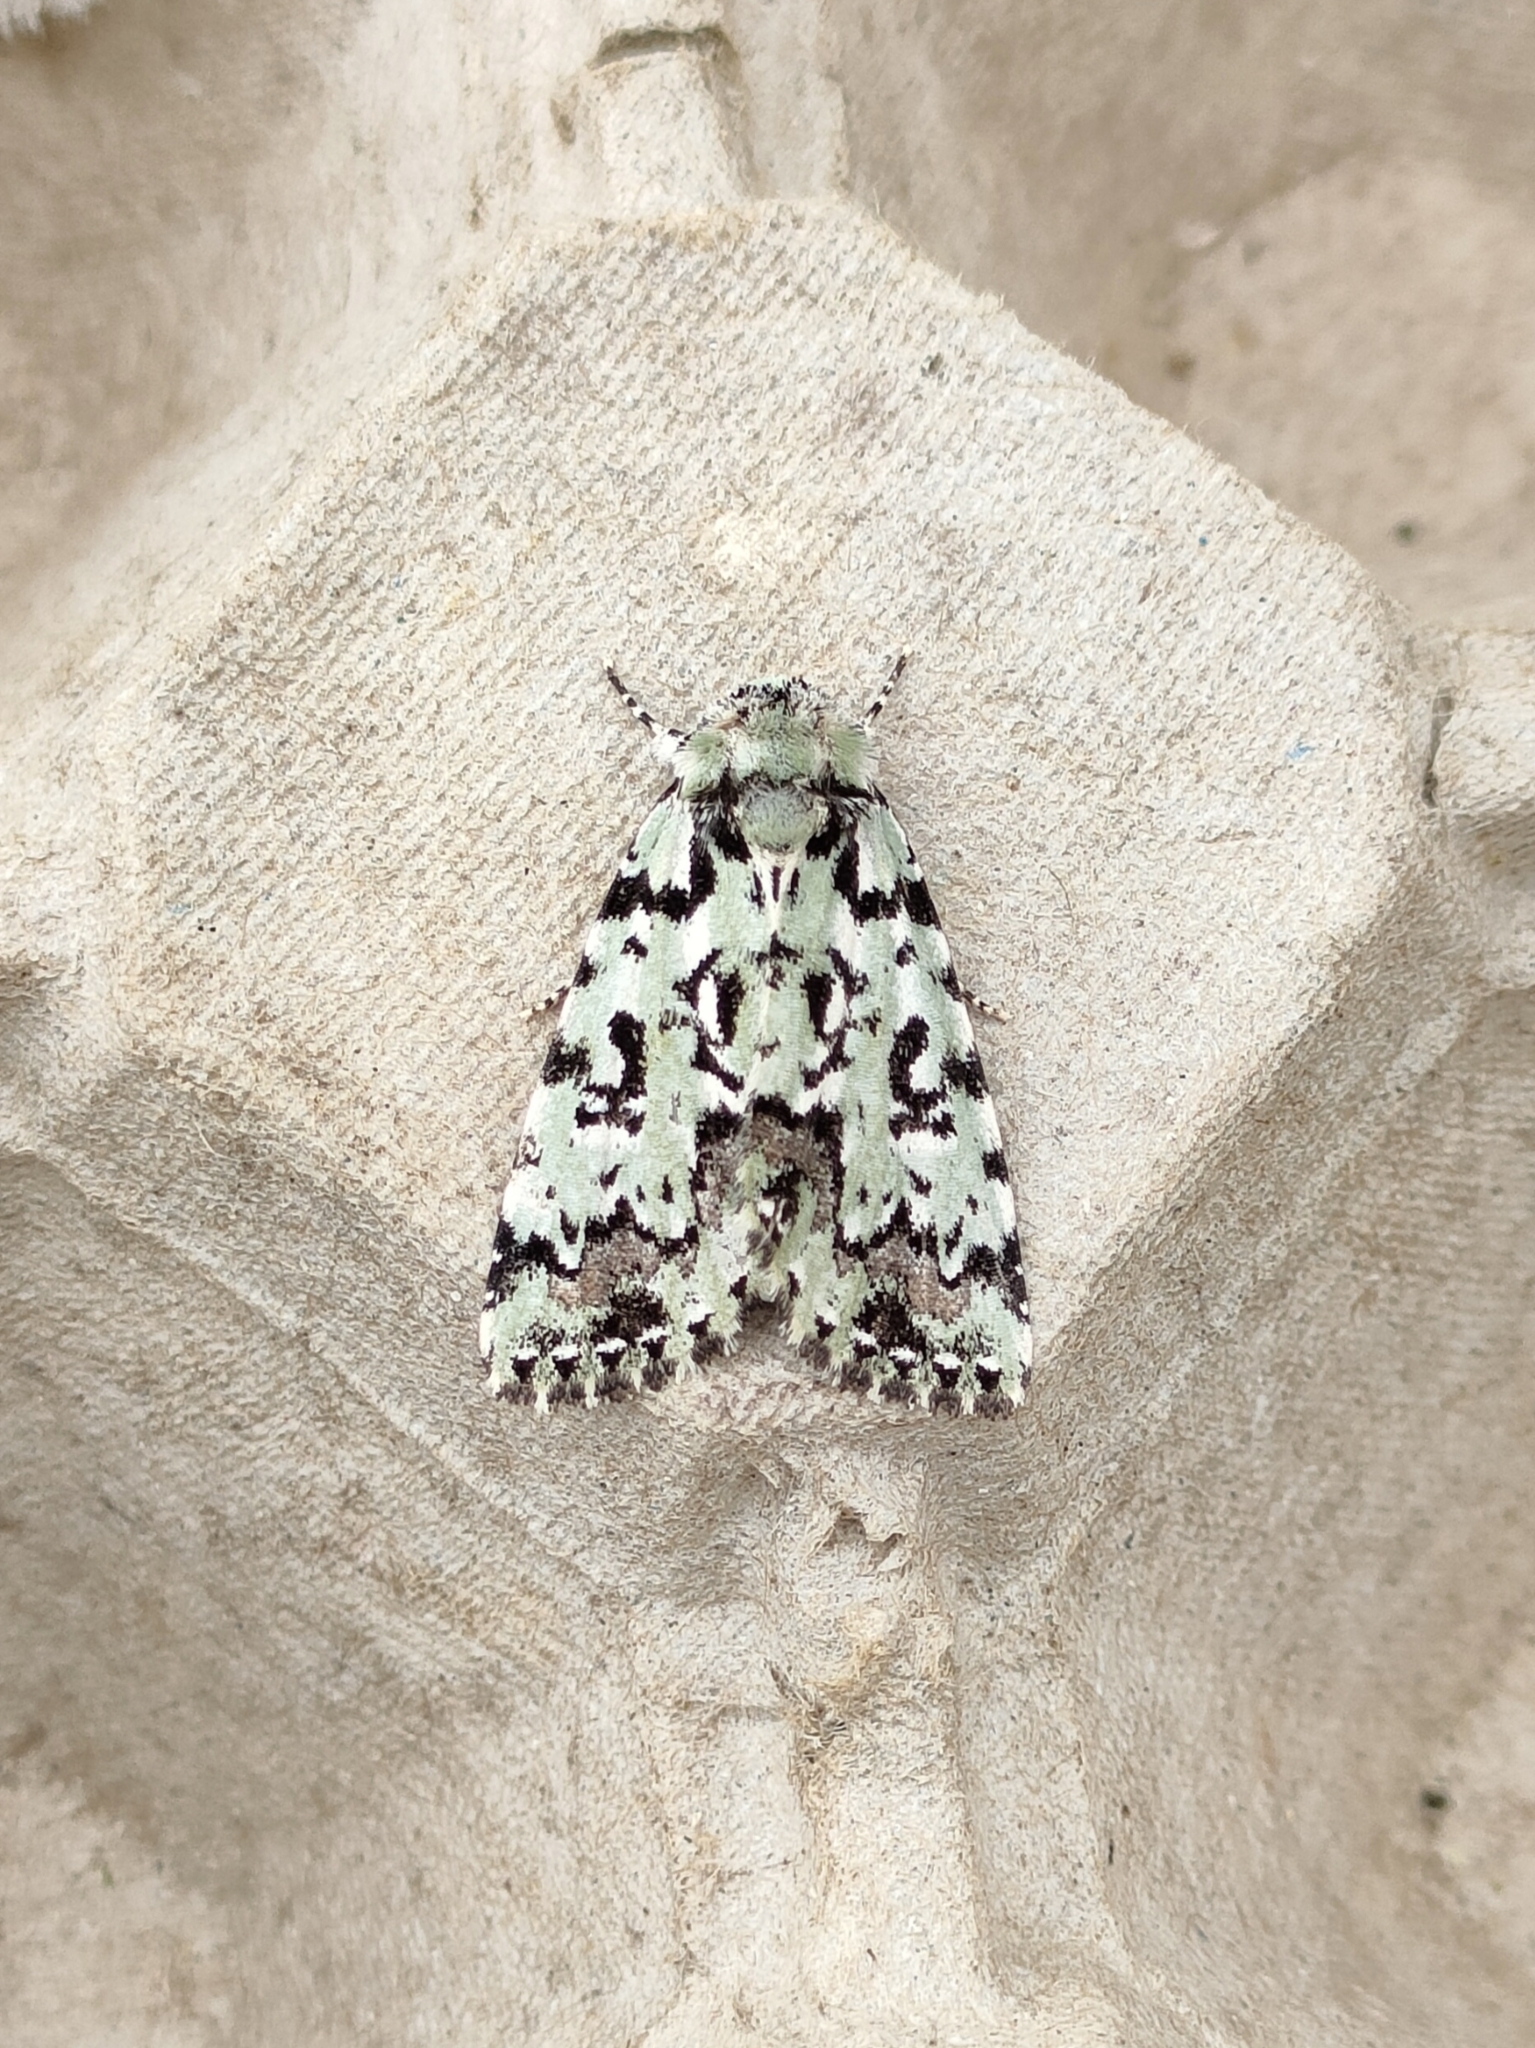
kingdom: Animalia
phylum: Arthropoda
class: Insecta
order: Lepidoptera
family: Noctuidae
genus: Moma
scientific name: Moma alpium
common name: Scarce merveille du jour
